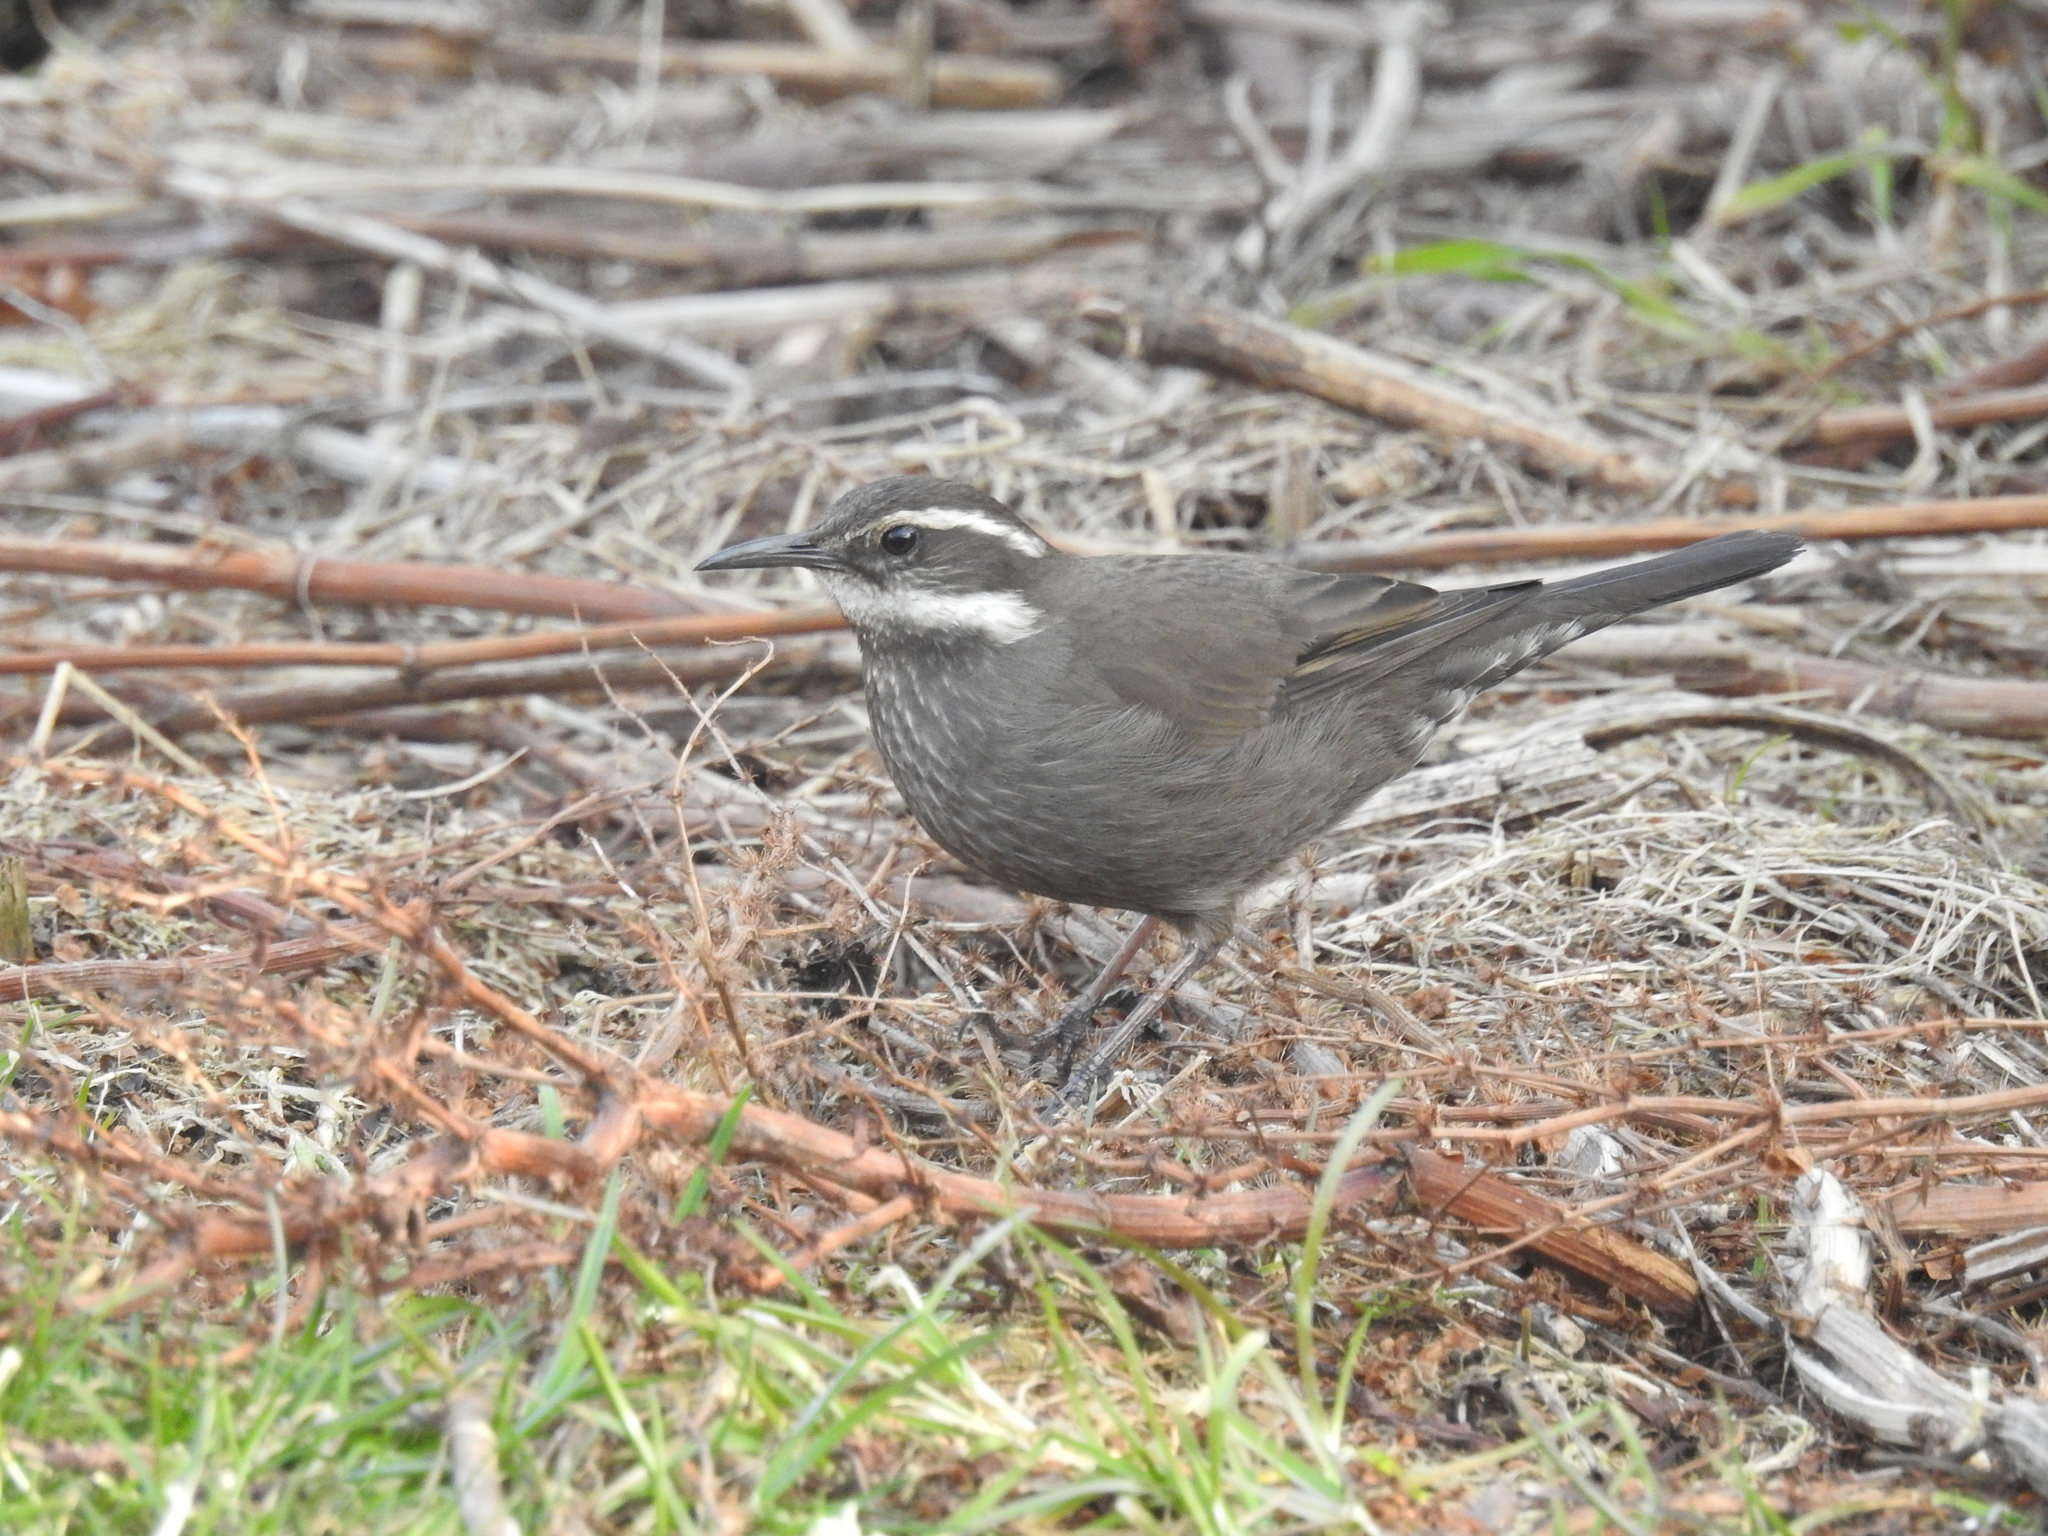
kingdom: Animalia
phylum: Chordata
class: Aves
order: Passeriformes
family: Furnariidae
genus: Cinclodes
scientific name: Cinclodes patagonicus
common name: Dark-bellied cinclodes
